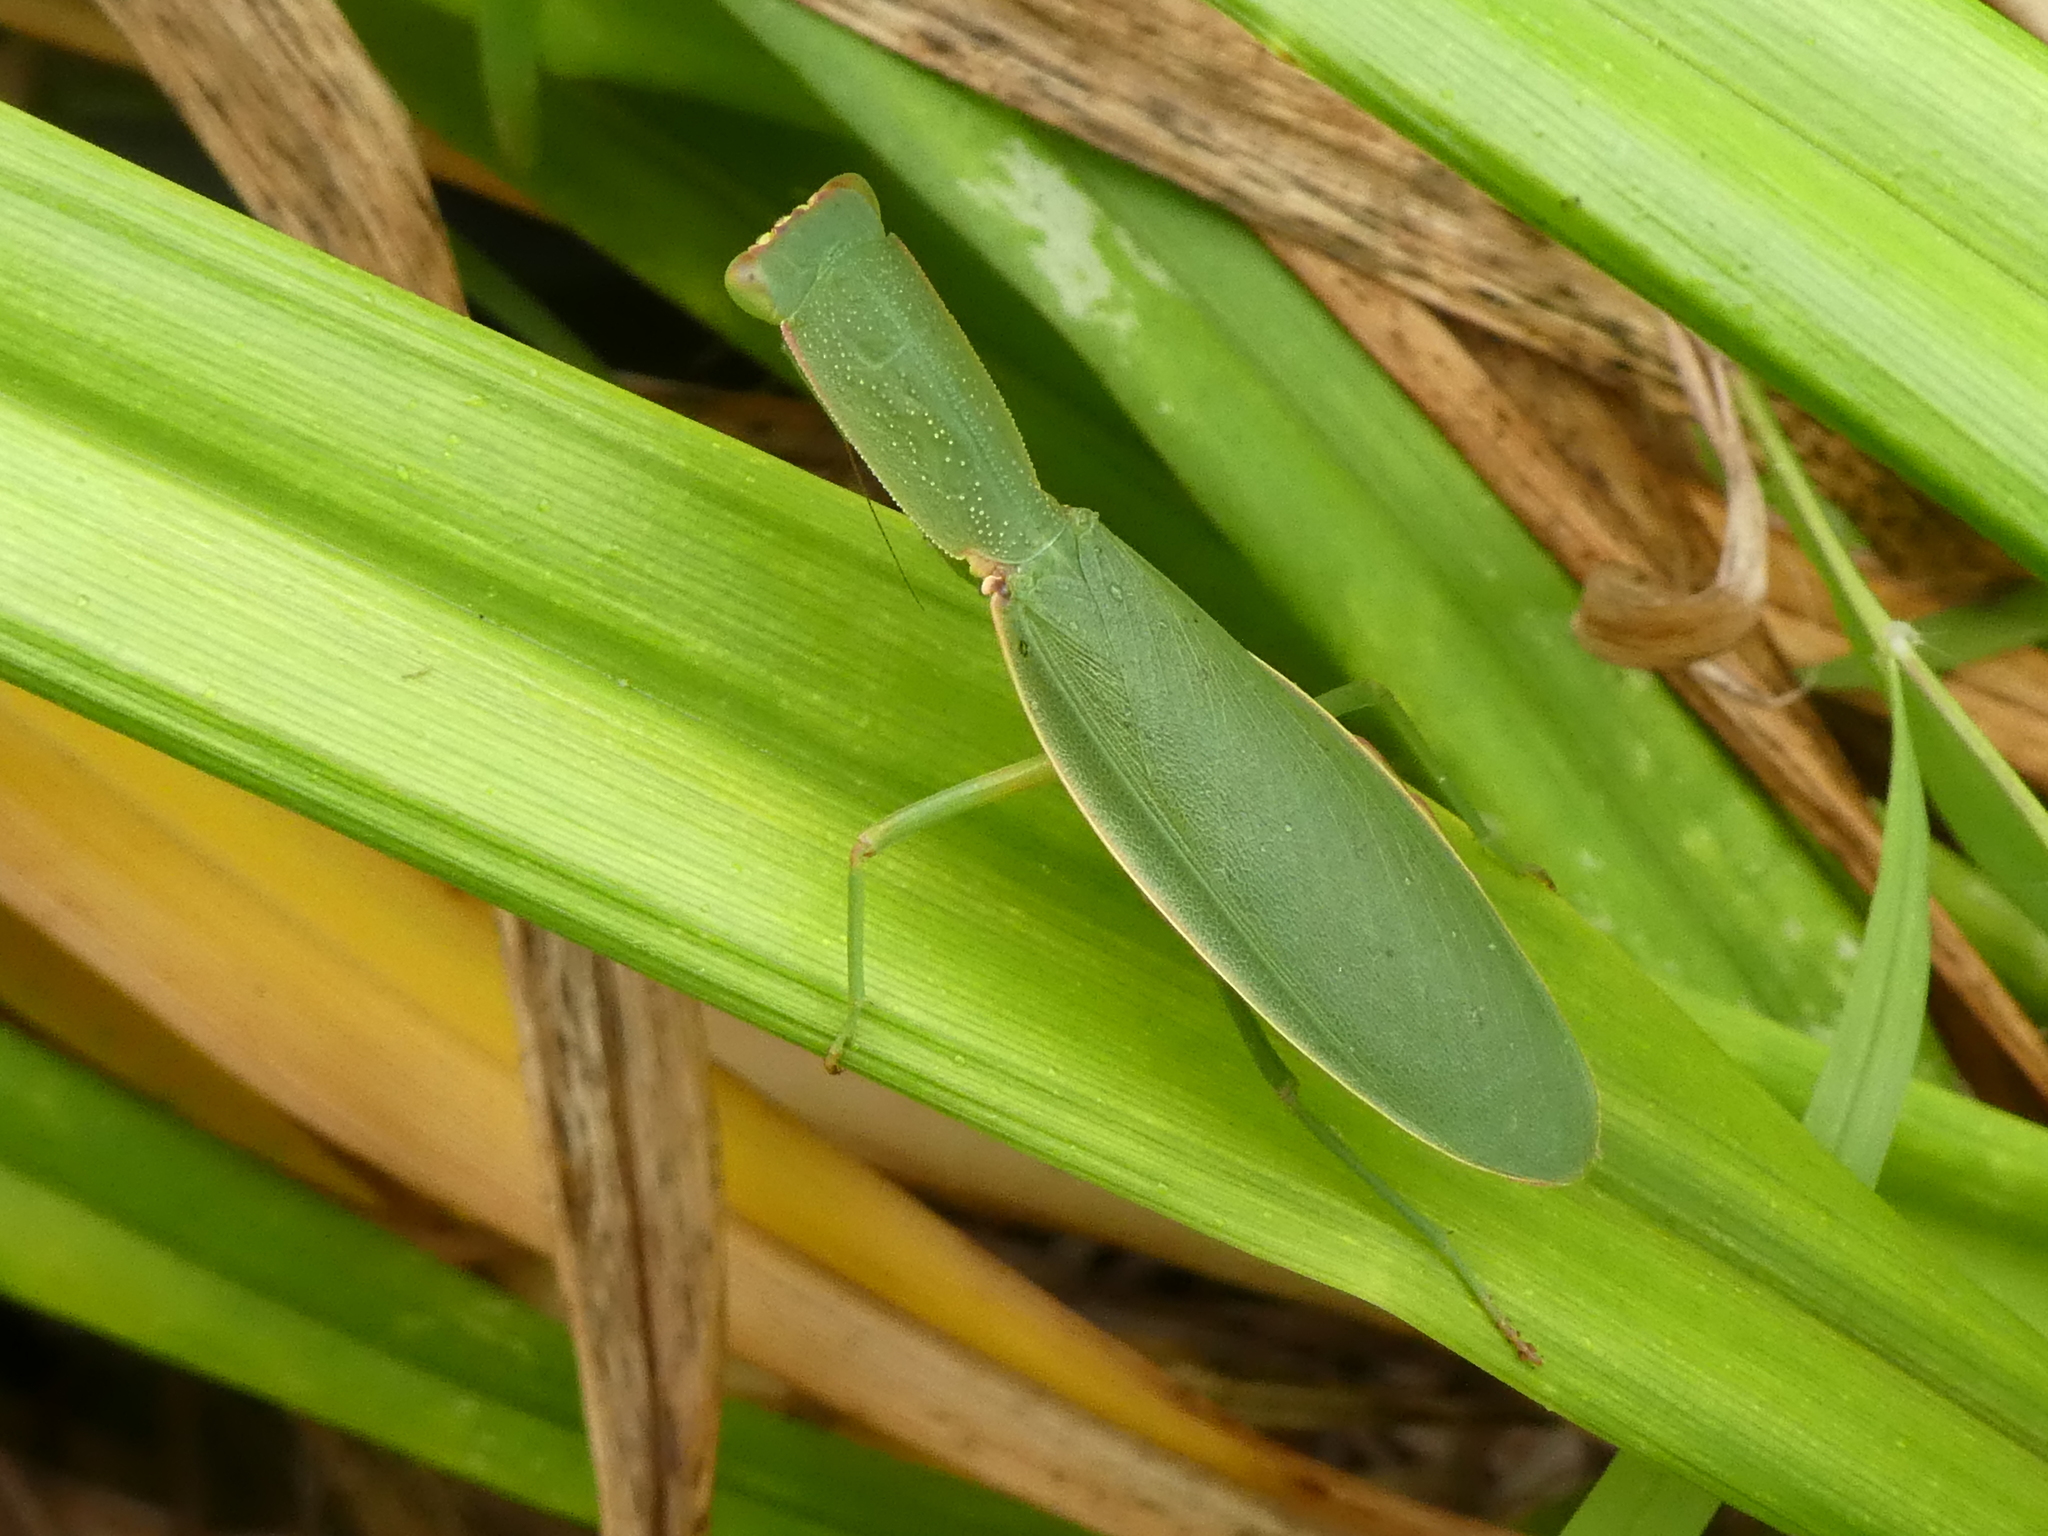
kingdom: Animalia
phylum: Arthropoda
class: Insecta
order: Mantodea
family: Mantidae
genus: Orthodera
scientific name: Orthodera novaezealandiae
